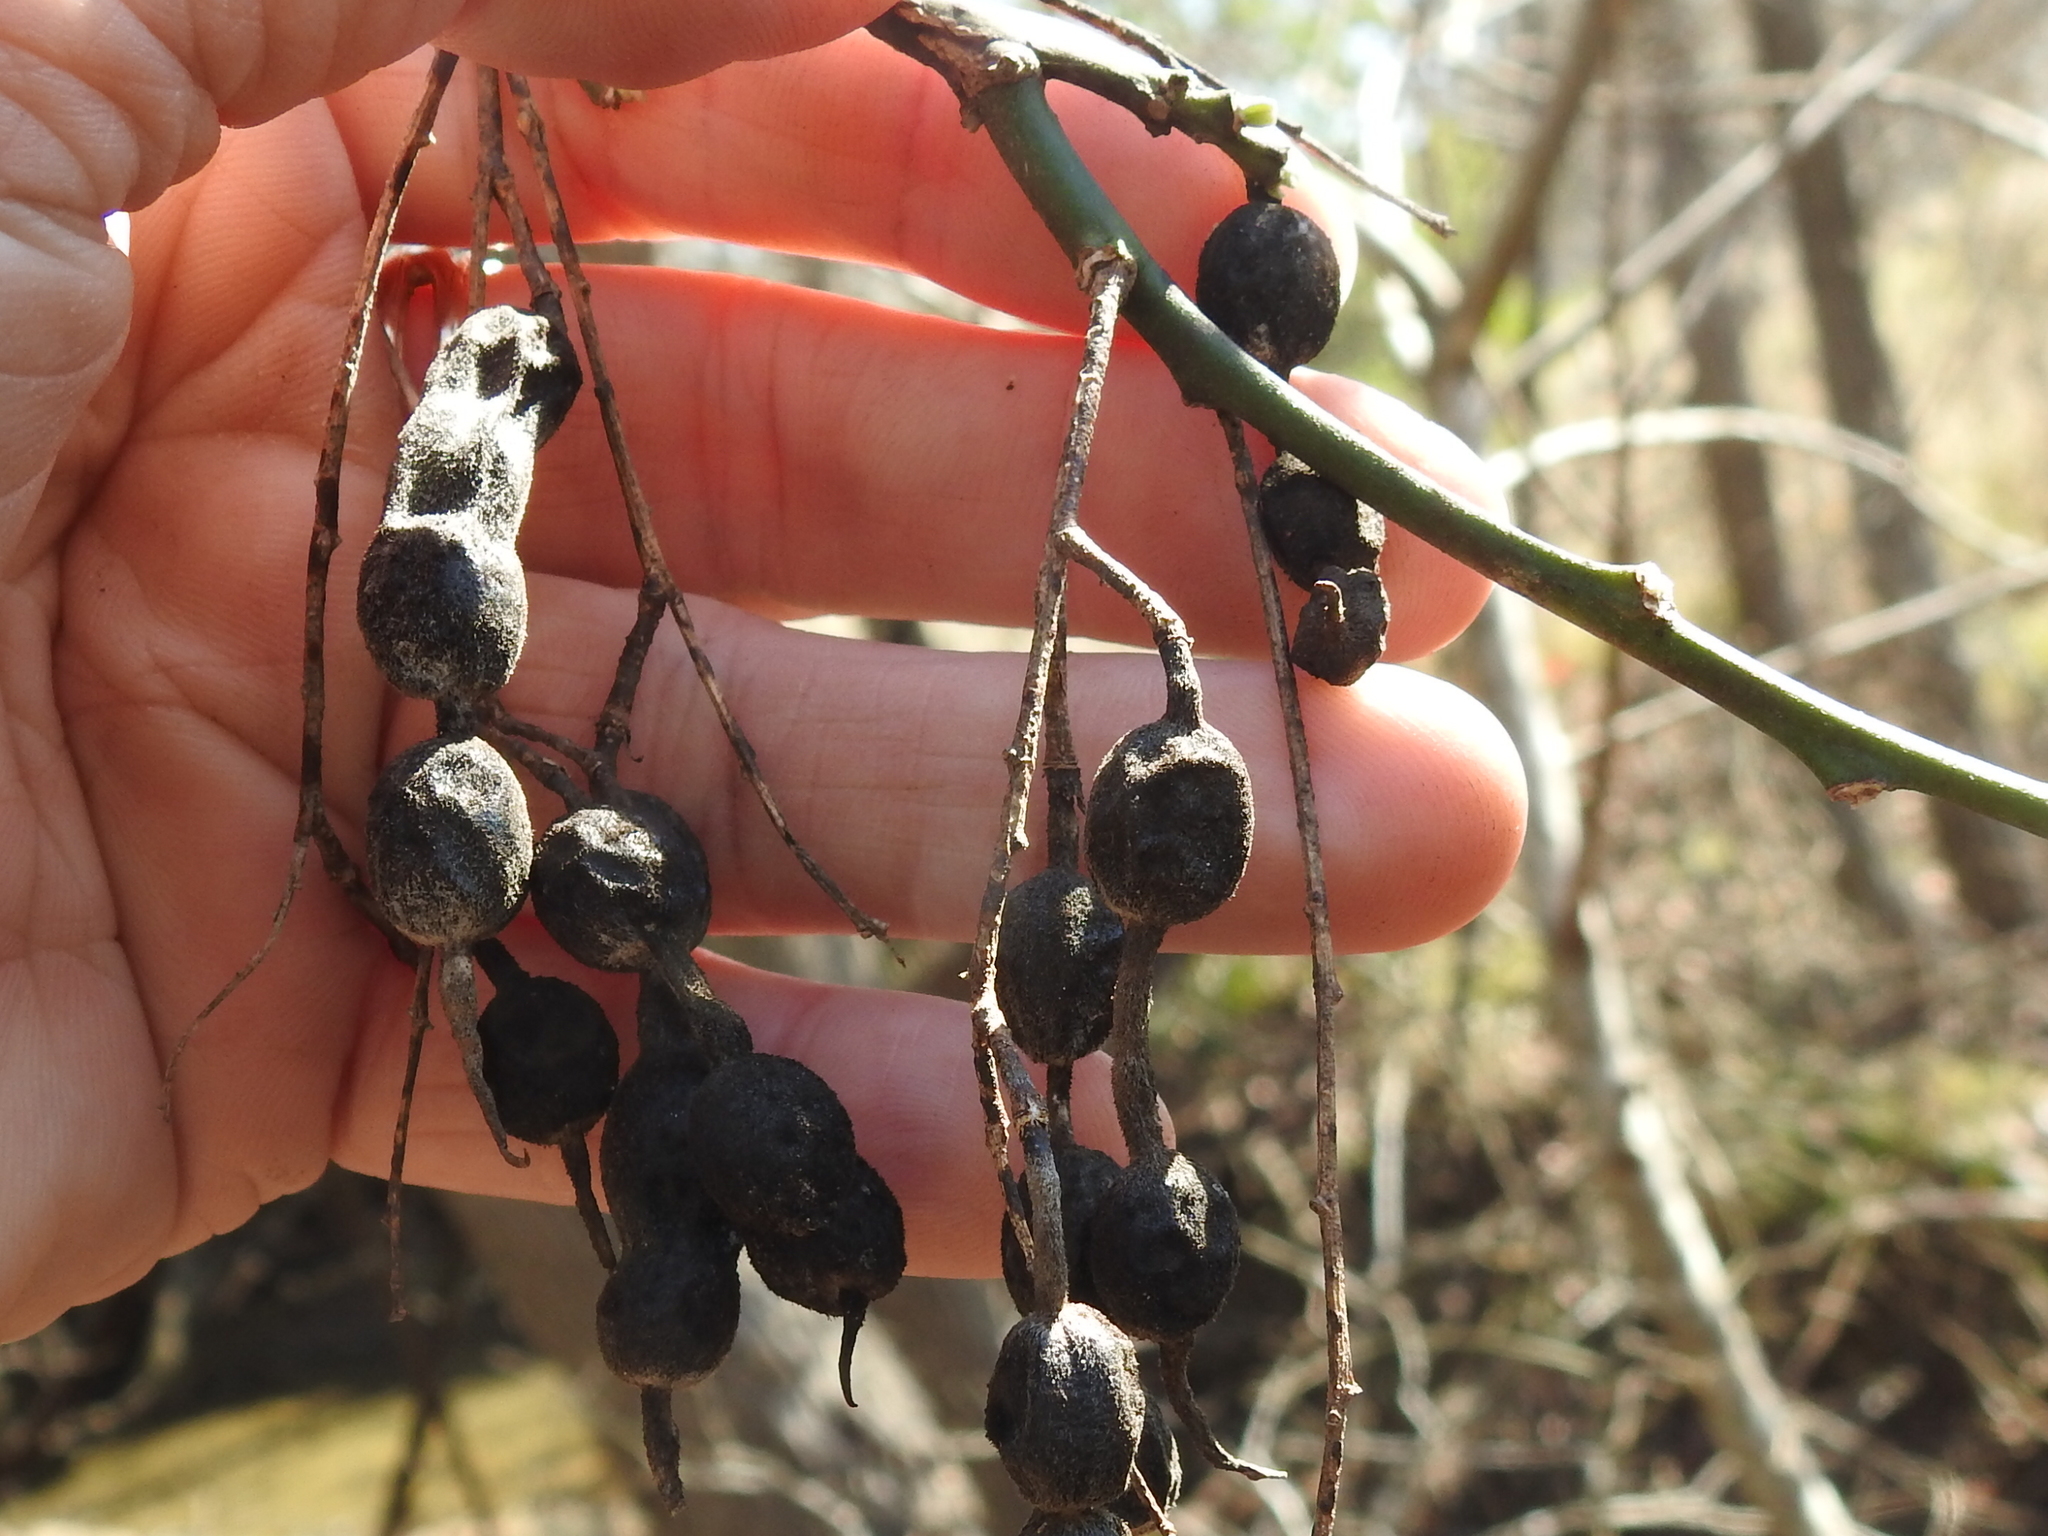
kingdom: Plantae
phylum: Tracheophyta
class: Magnoliopsida
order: Fabales
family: Fabaceae
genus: Styphnolobium
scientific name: Styphnolobium affine
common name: Texas sophora
